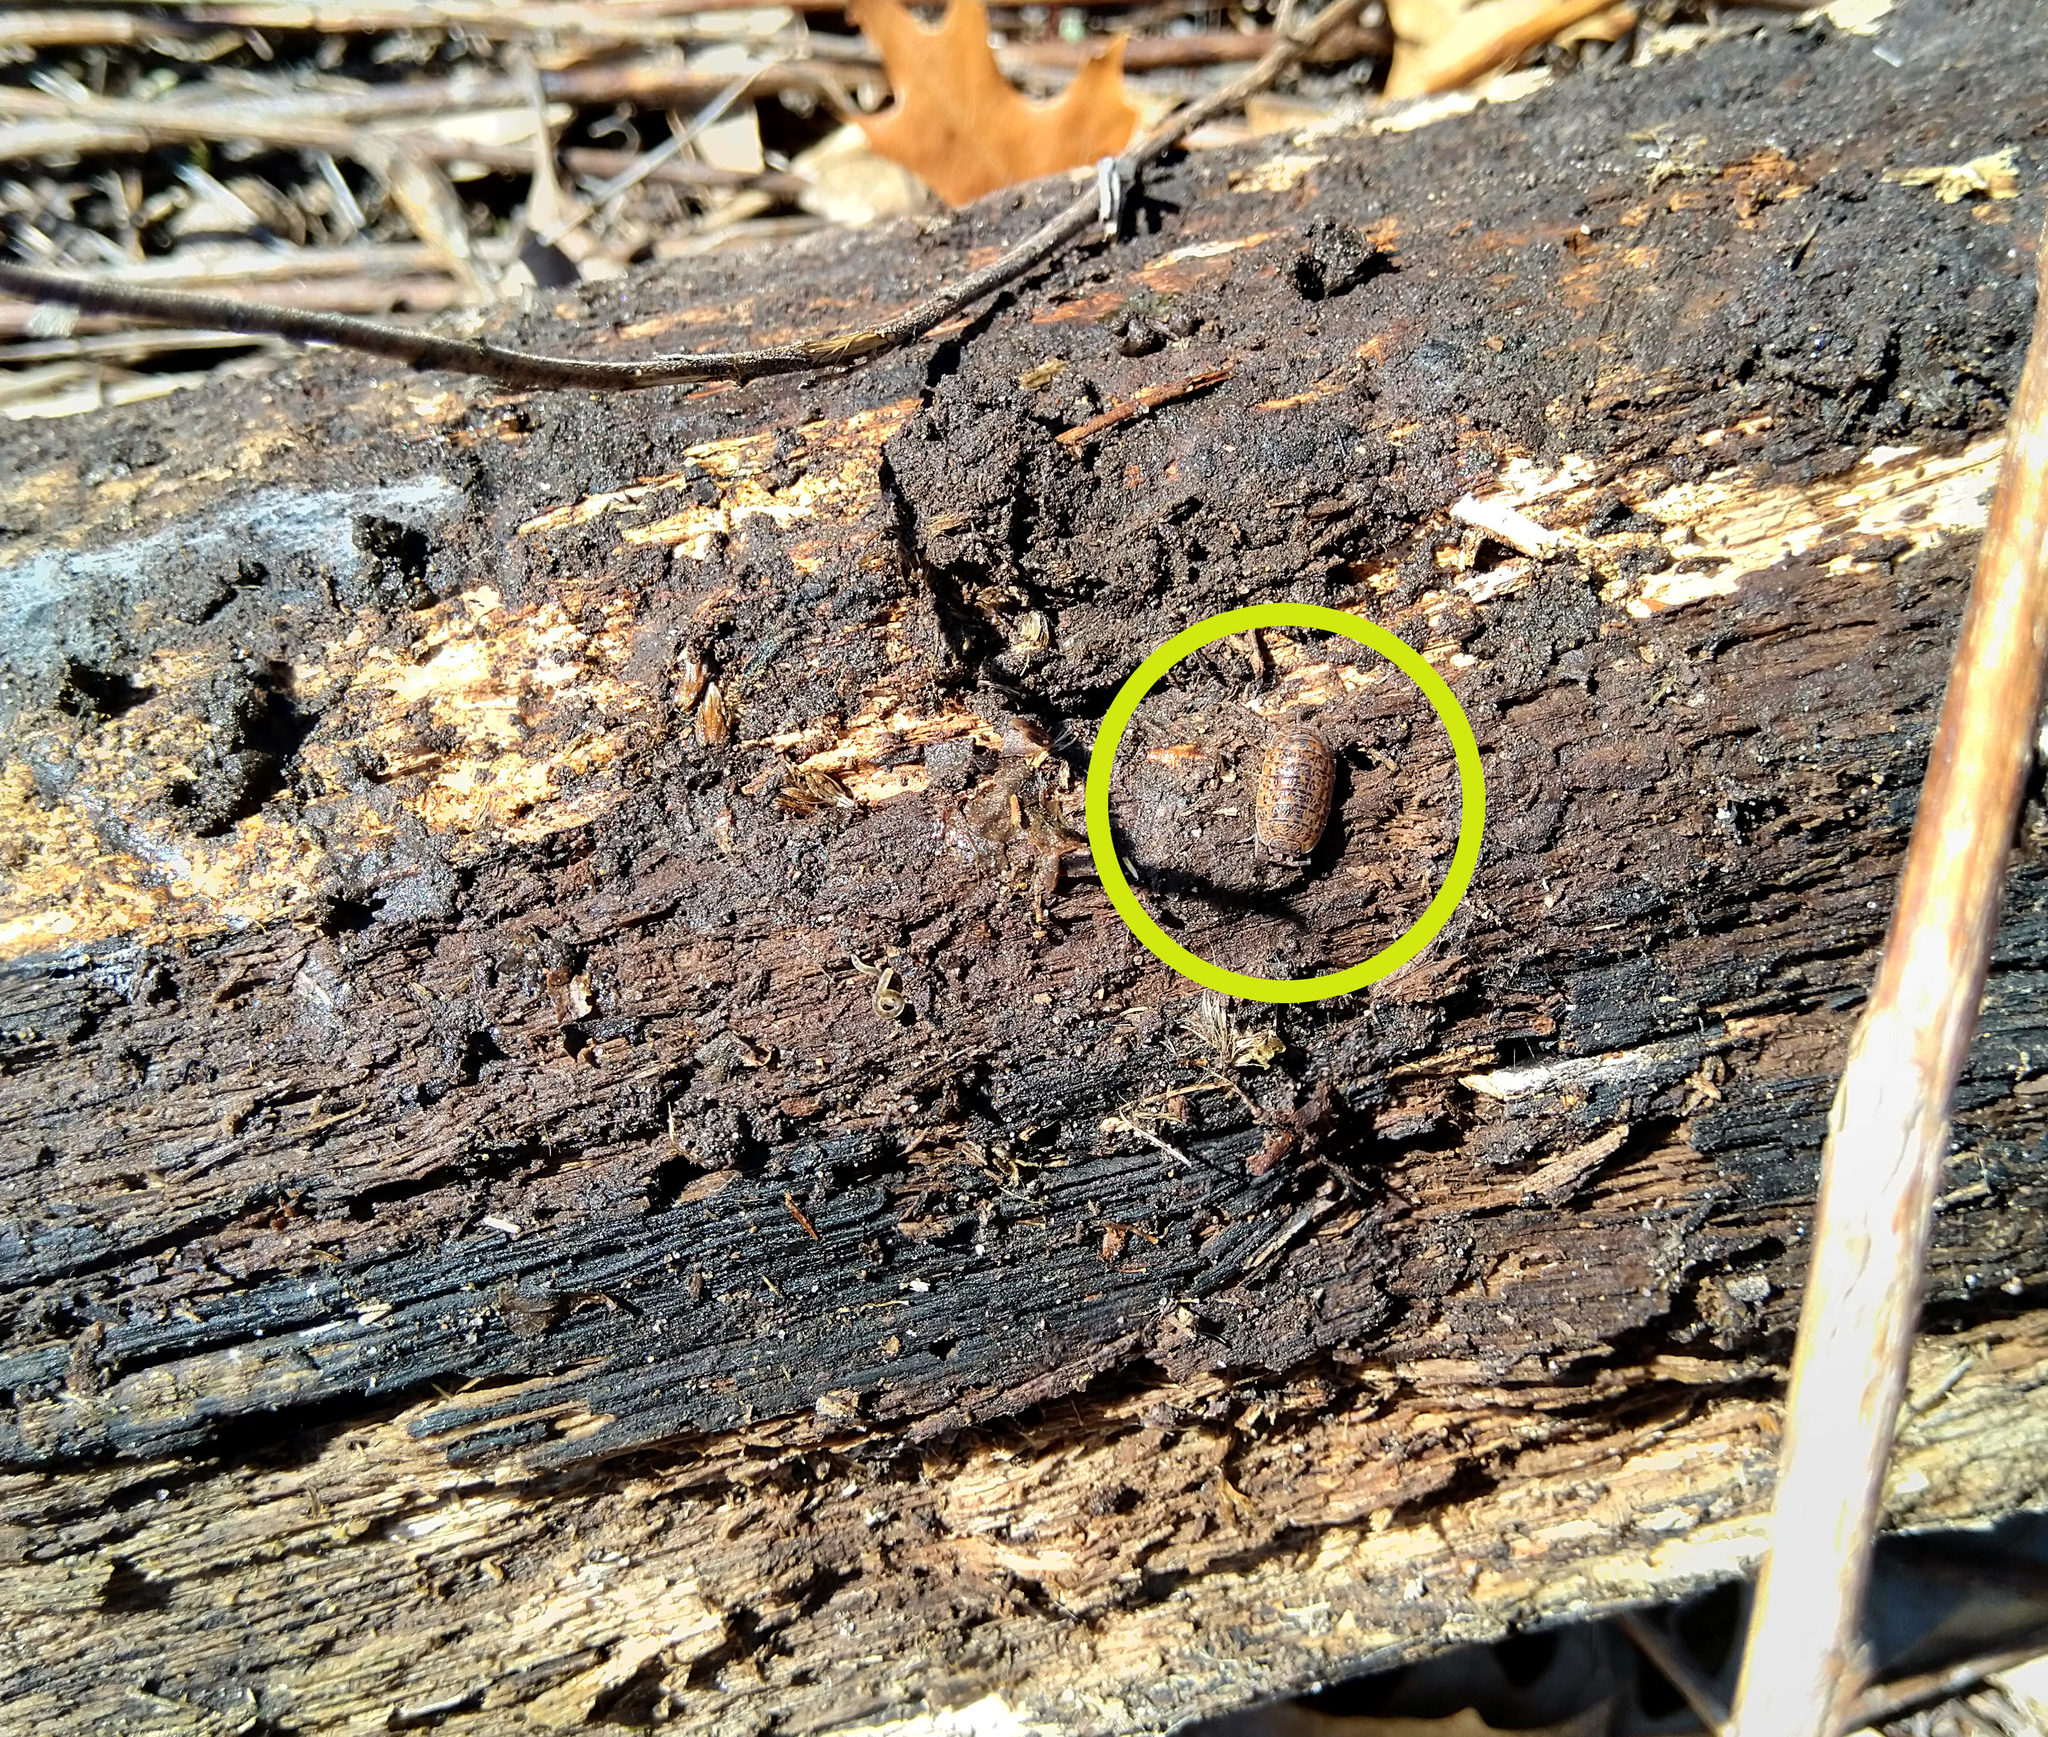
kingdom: Animalia
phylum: Arthropoda
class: Malacostraca
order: Isopoda
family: Trachelipodidae
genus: Trachelipus
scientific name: Trachelipus rathkii
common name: Isopod
